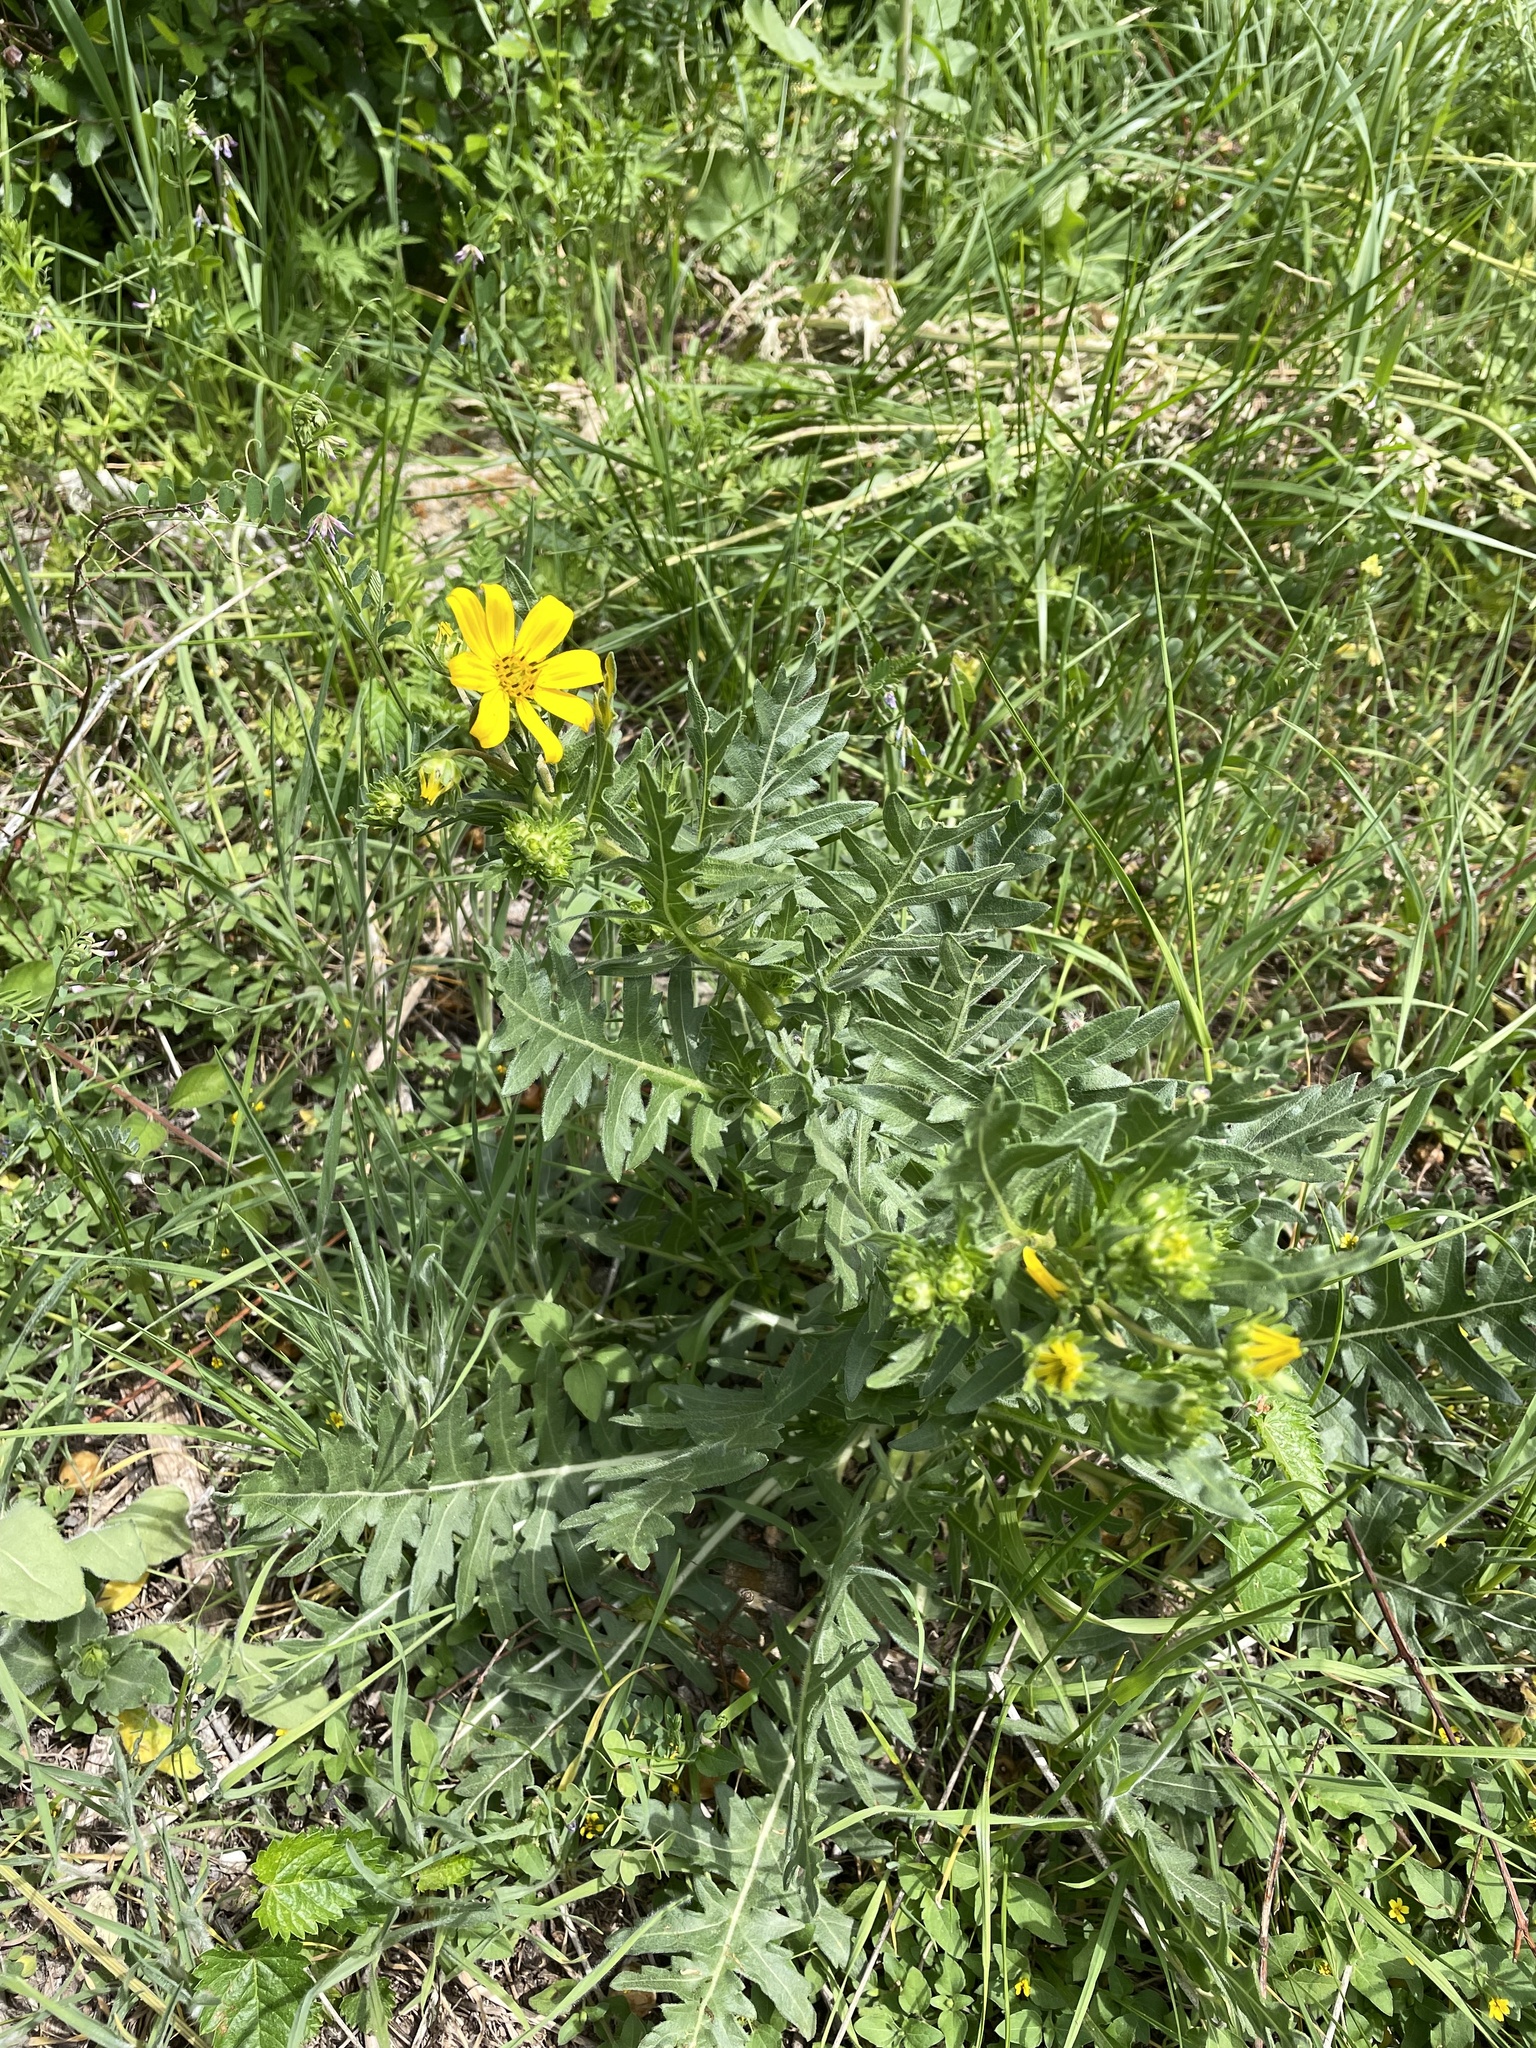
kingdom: Plantae
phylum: Tracheophyta
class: Magnoliopsida
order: Asterales
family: Asteraceae
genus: Engelmannia
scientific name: Engelmannia peristenia
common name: Engelmann's daisy
